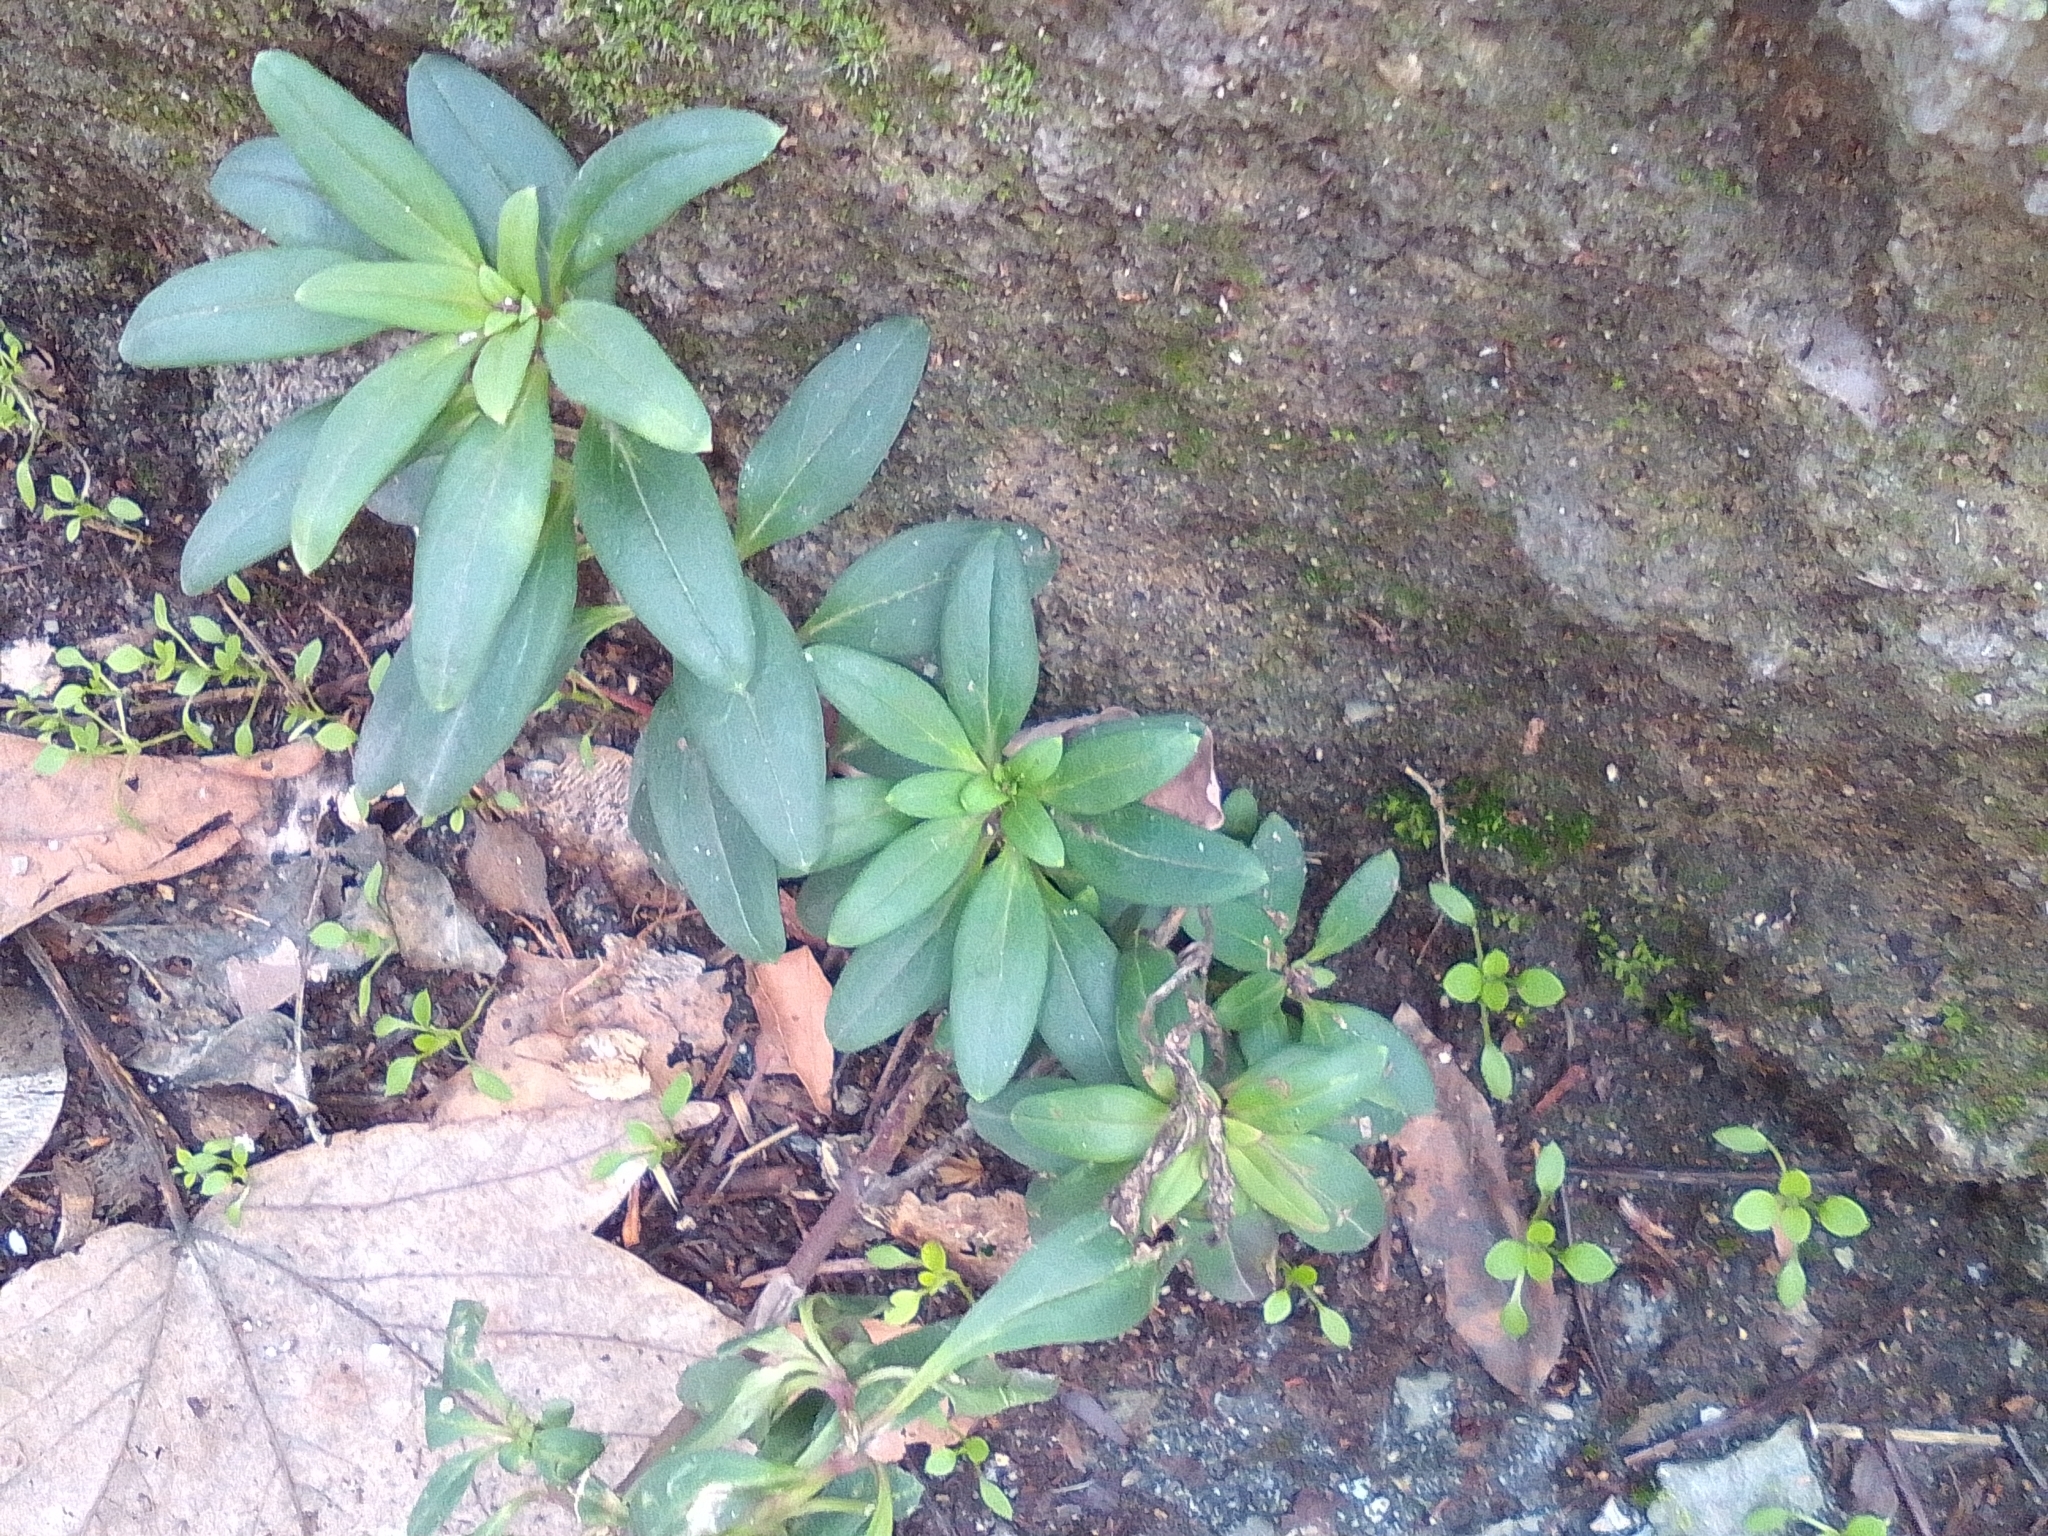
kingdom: Plantae
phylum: Tracheophyta
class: Magnoliopsida
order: Malvales
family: Thymelaeaceae
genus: Daphne
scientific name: Daphne laureola
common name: Spurge-laurel
